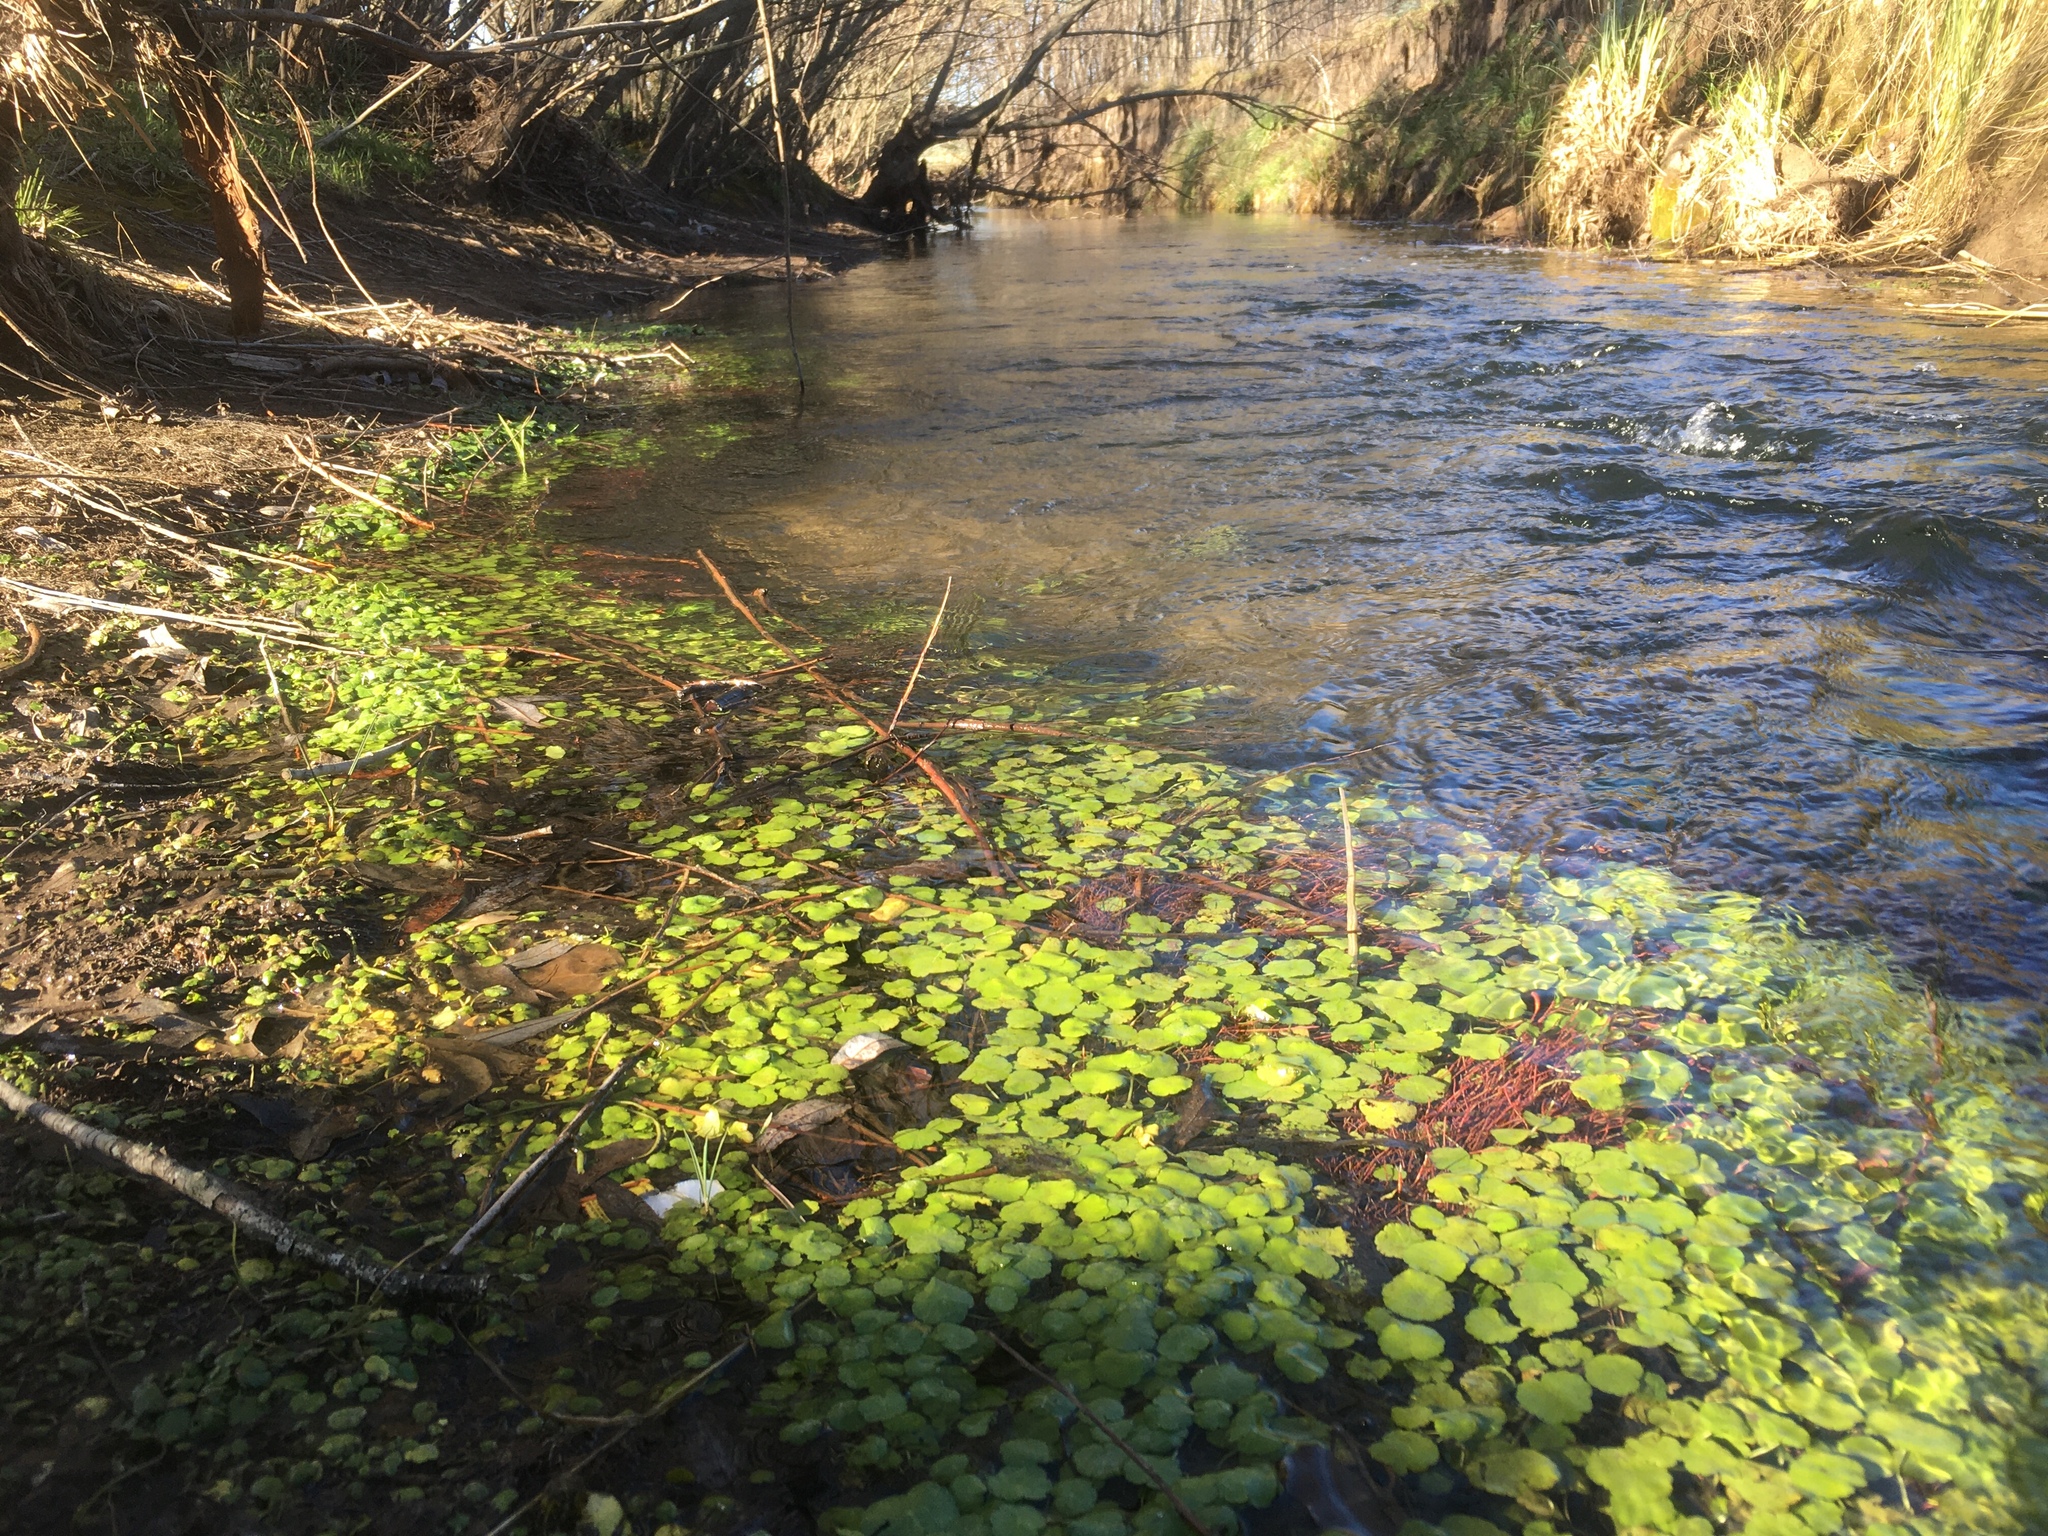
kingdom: Plantae
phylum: Tracheophyta
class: Magnoliopsida
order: Apiales
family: Araliaceae
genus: Hydrocotyle
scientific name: Hydrocotyle bonariensis
